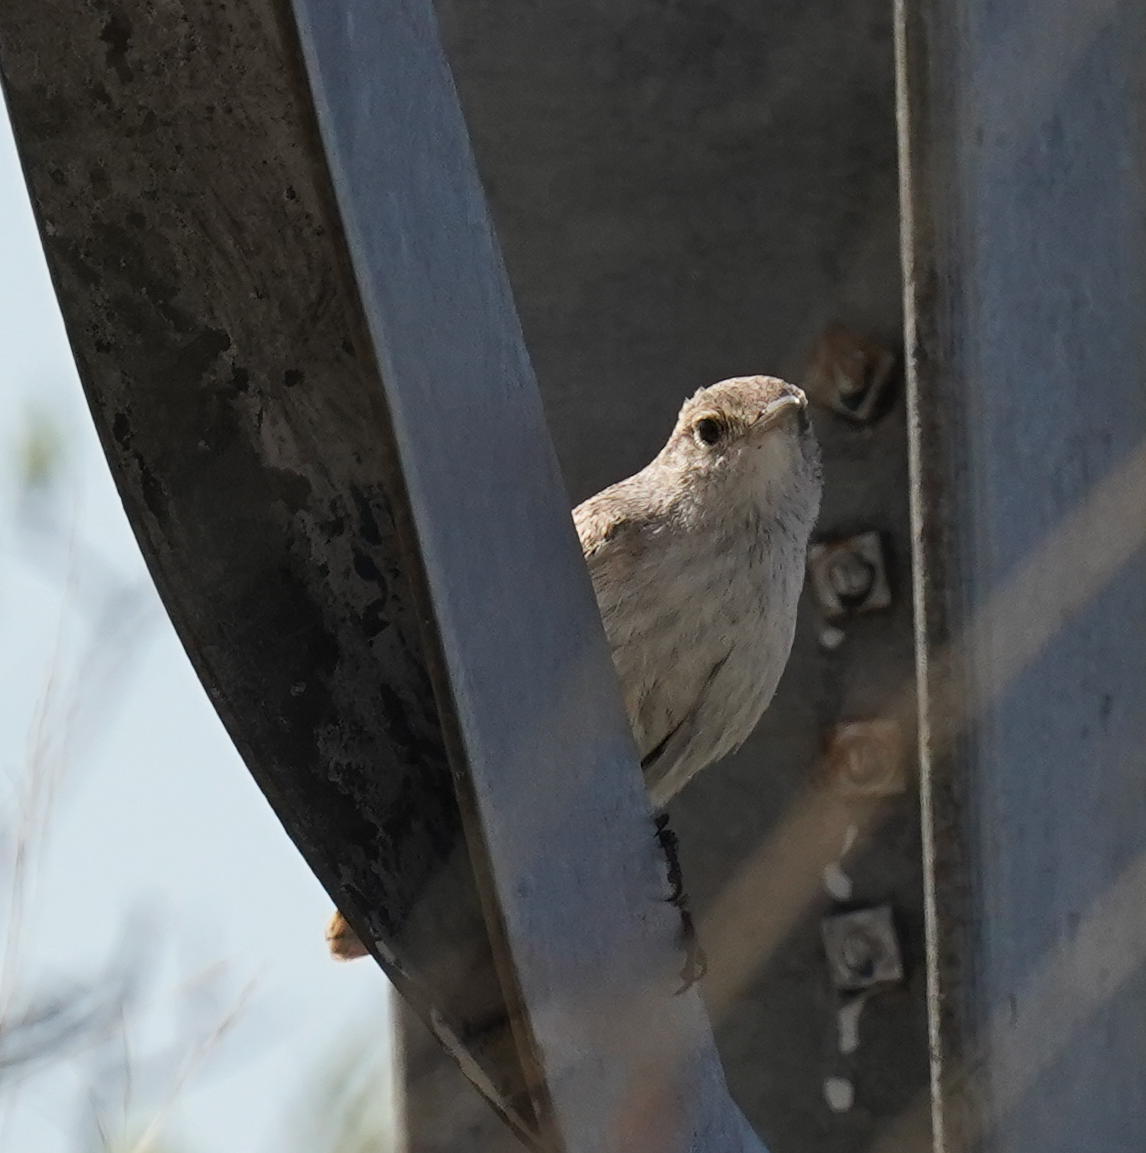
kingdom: Animalia
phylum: Chordata
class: Aves
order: Passeriformes
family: Troglodytidae
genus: Salpinctes
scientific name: Salpinctes obsoletus
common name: Rock wren
